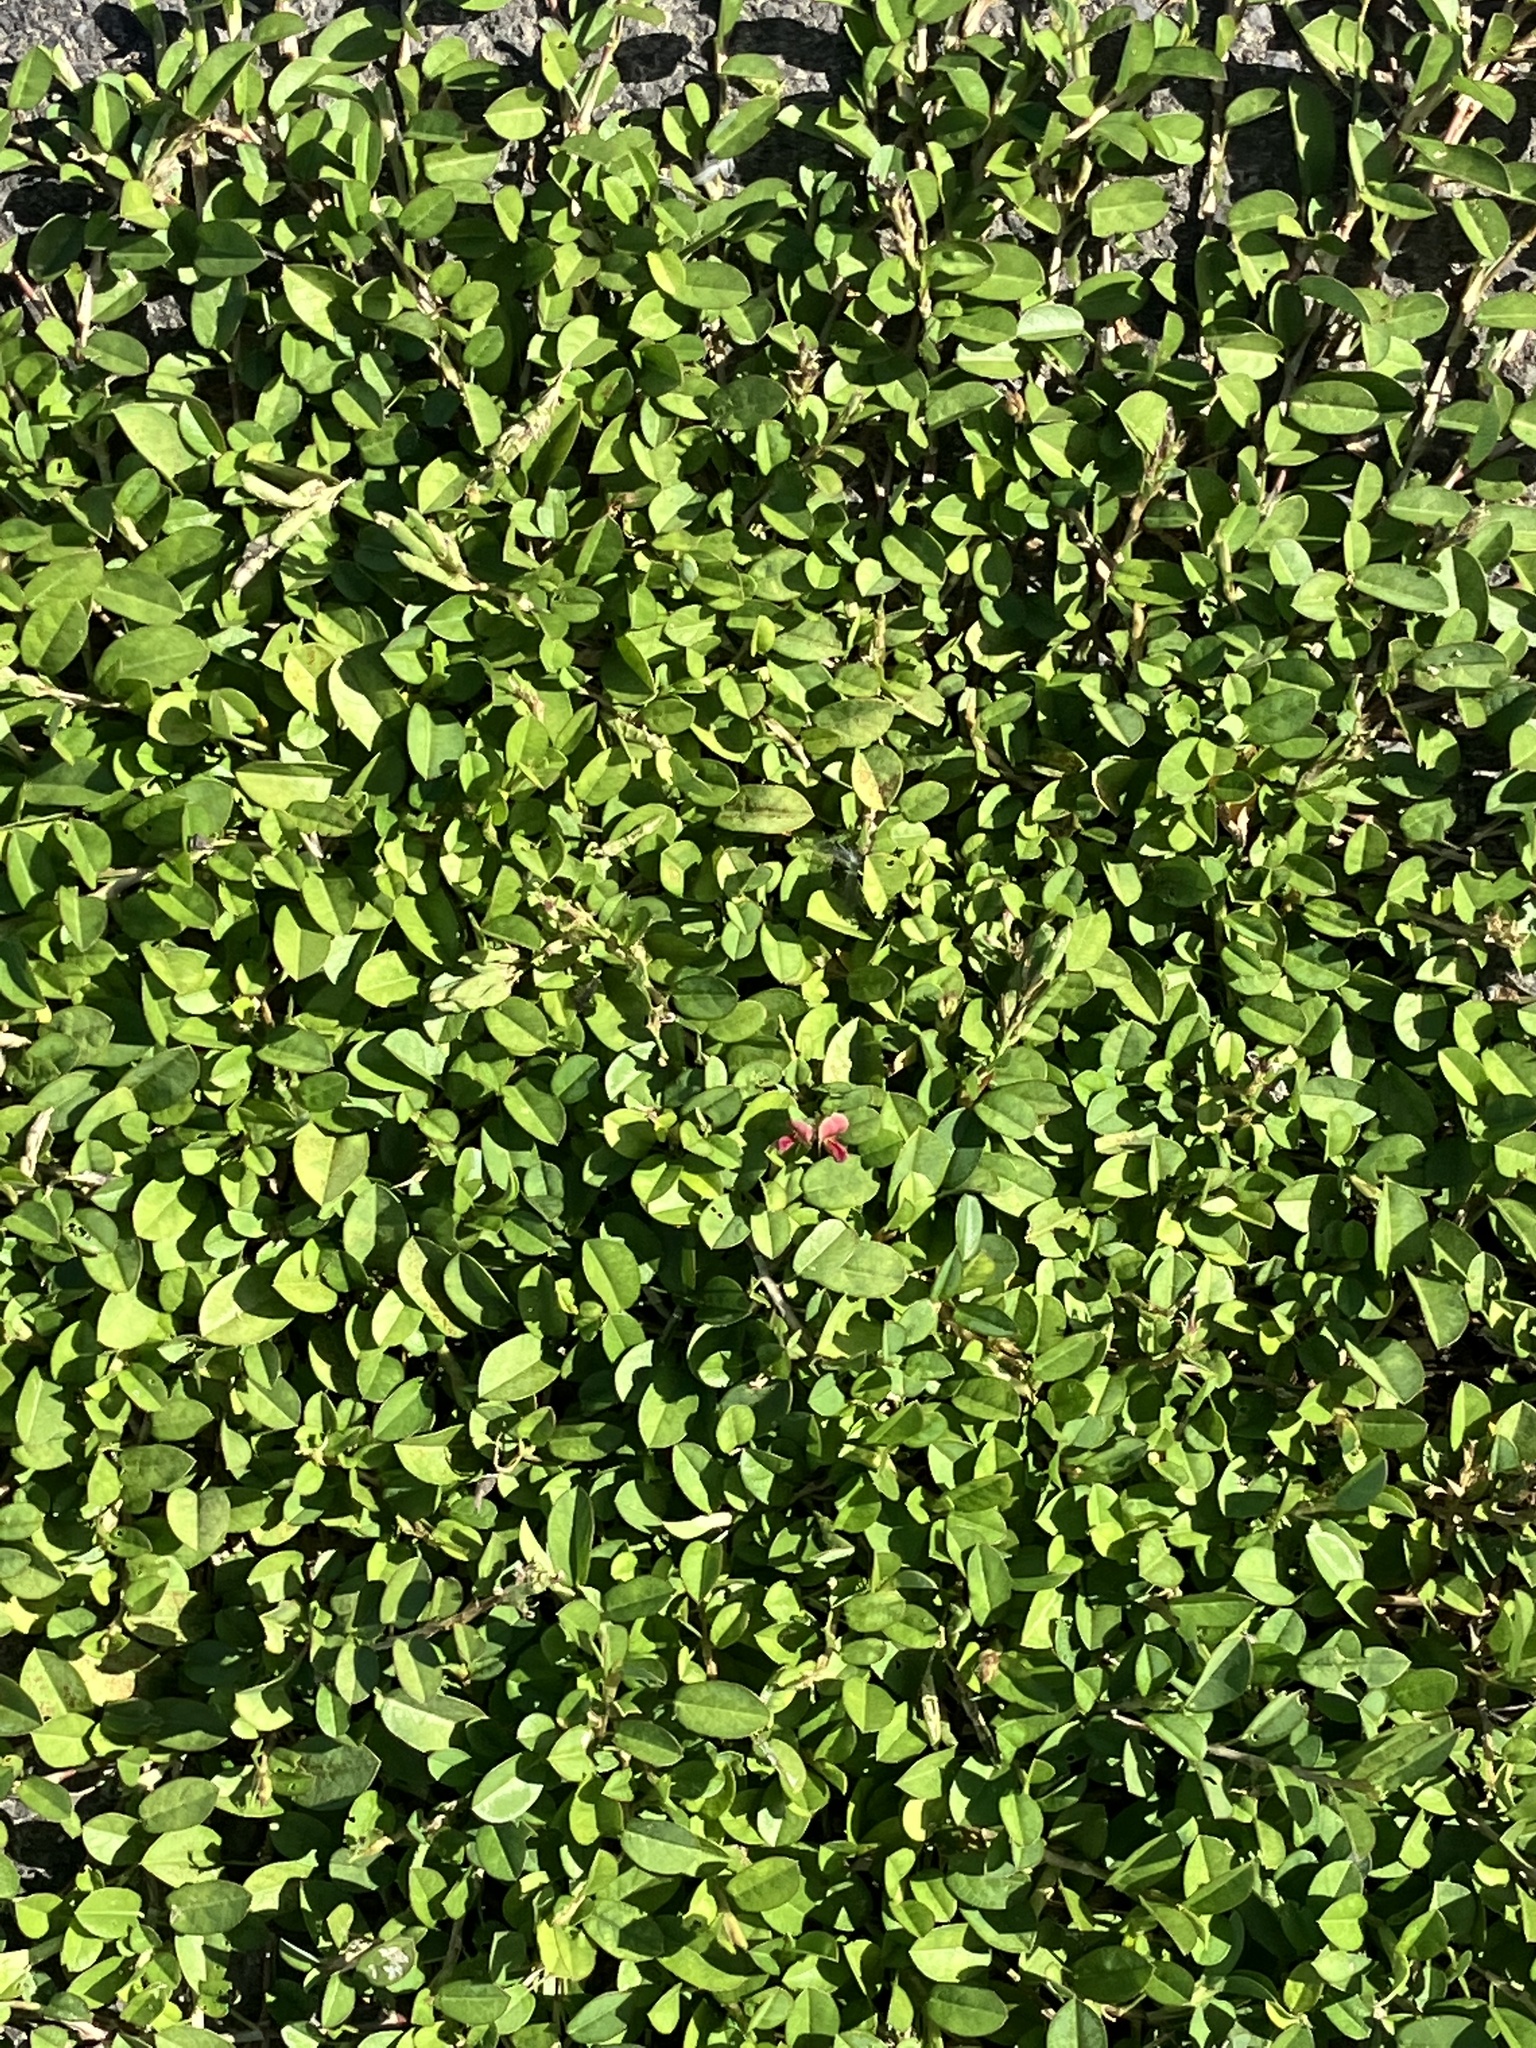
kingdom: Plantae
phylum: Tracheophyta
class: Magnoliopsida
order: Fabales
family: Fabaceae
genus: Alysicarpus
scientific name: Alysicarpus vaginalis
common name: White moneywort
